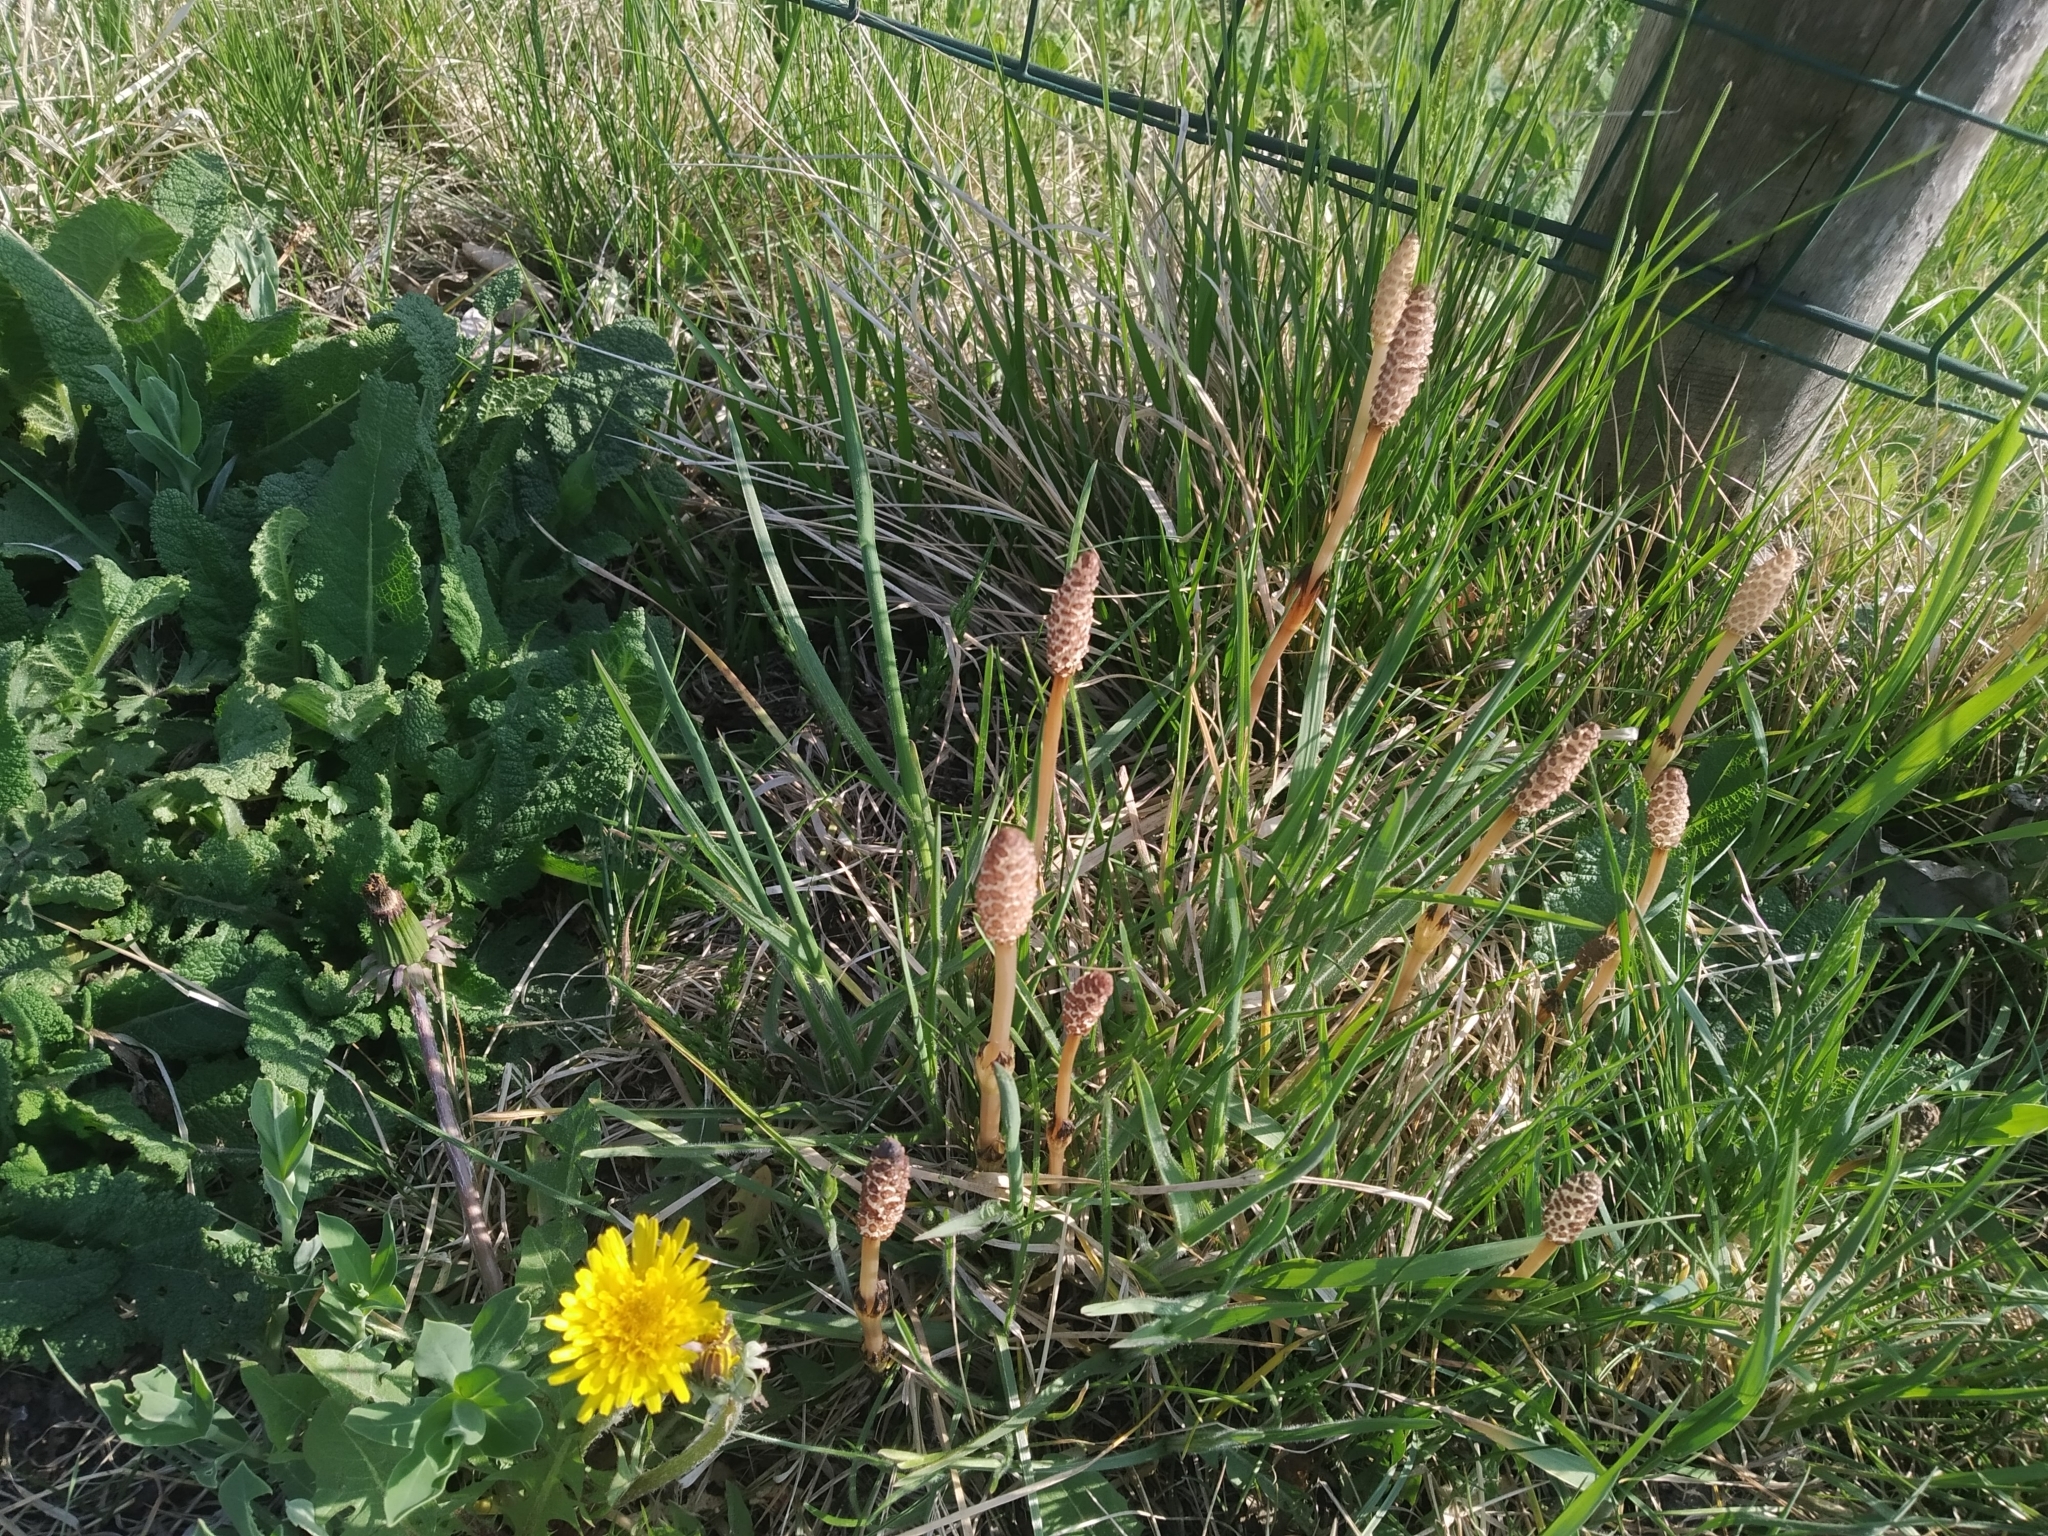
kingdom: Plantae
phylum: Tracheophyta
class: Polypodiopsida
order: Equisetales
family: Equisetaceae
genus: Equisetum
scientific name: Equisetum arvense
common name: Field horsetail
